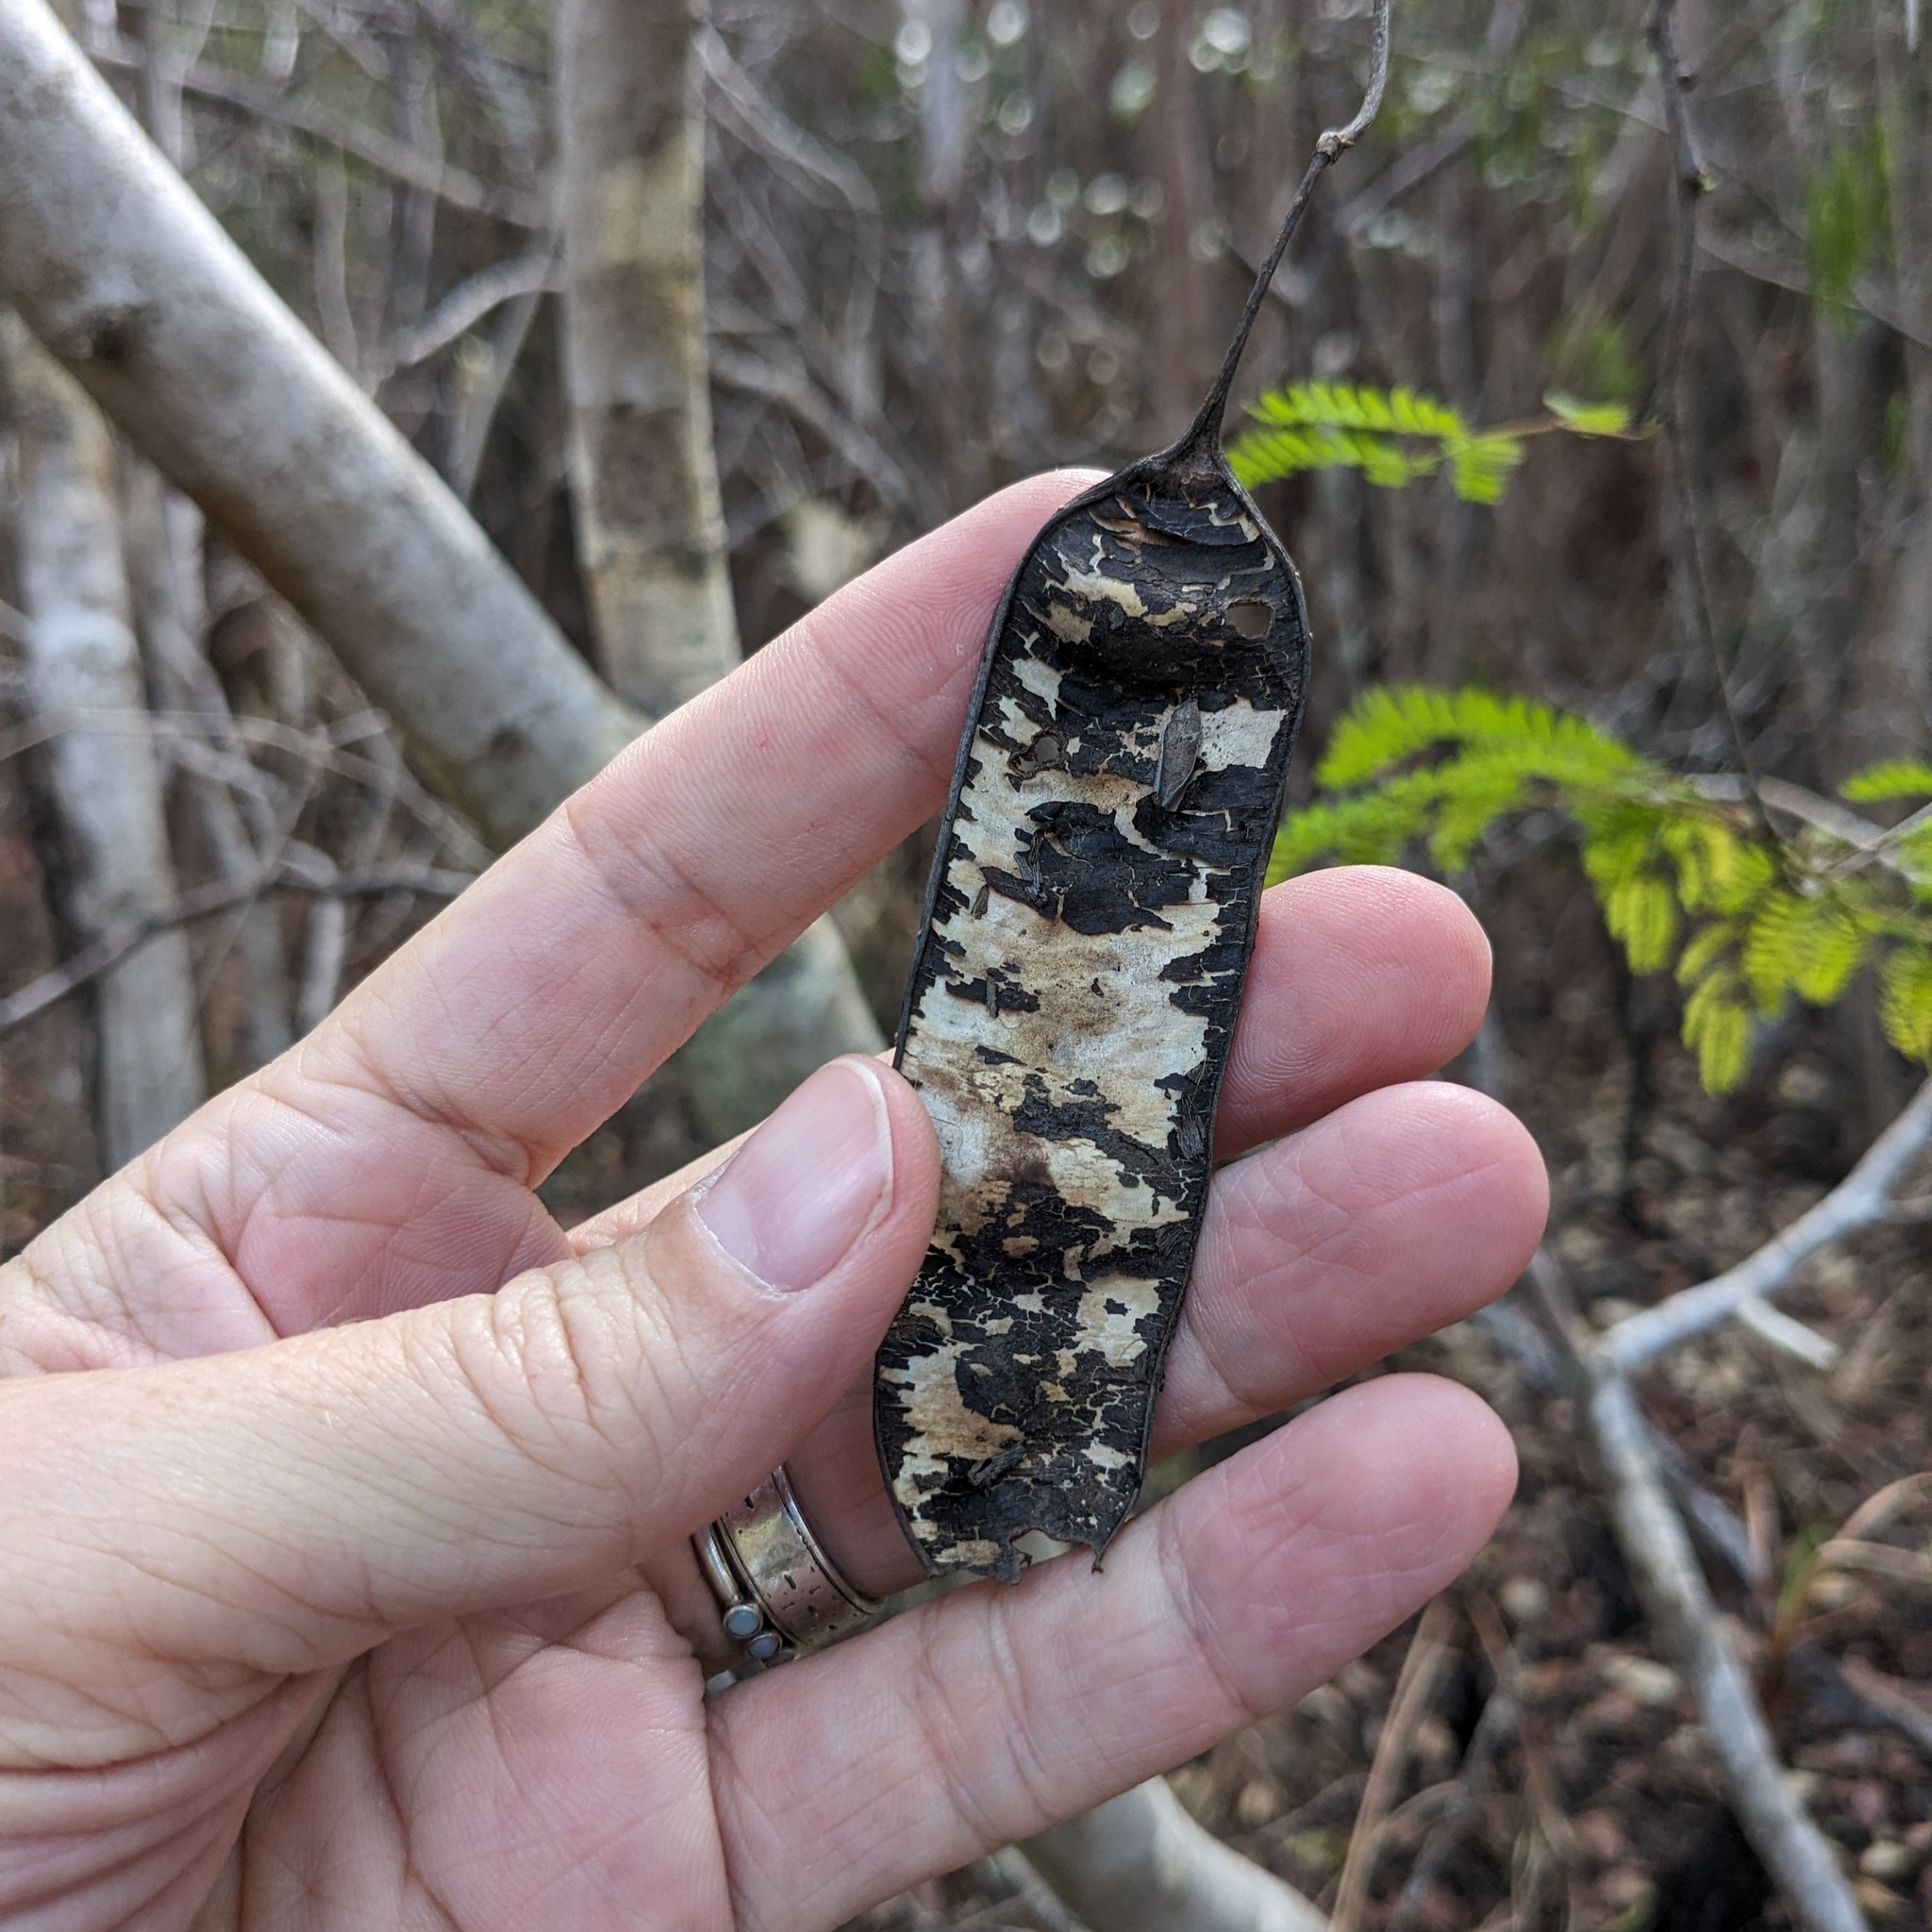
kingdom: Plantae
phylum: Tracheophyta
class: Magnoliopsida
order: Fabales
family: Fabaceae
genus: Lysiloma
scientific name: Lysiloma latisiliquum
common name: Wild tamarind
